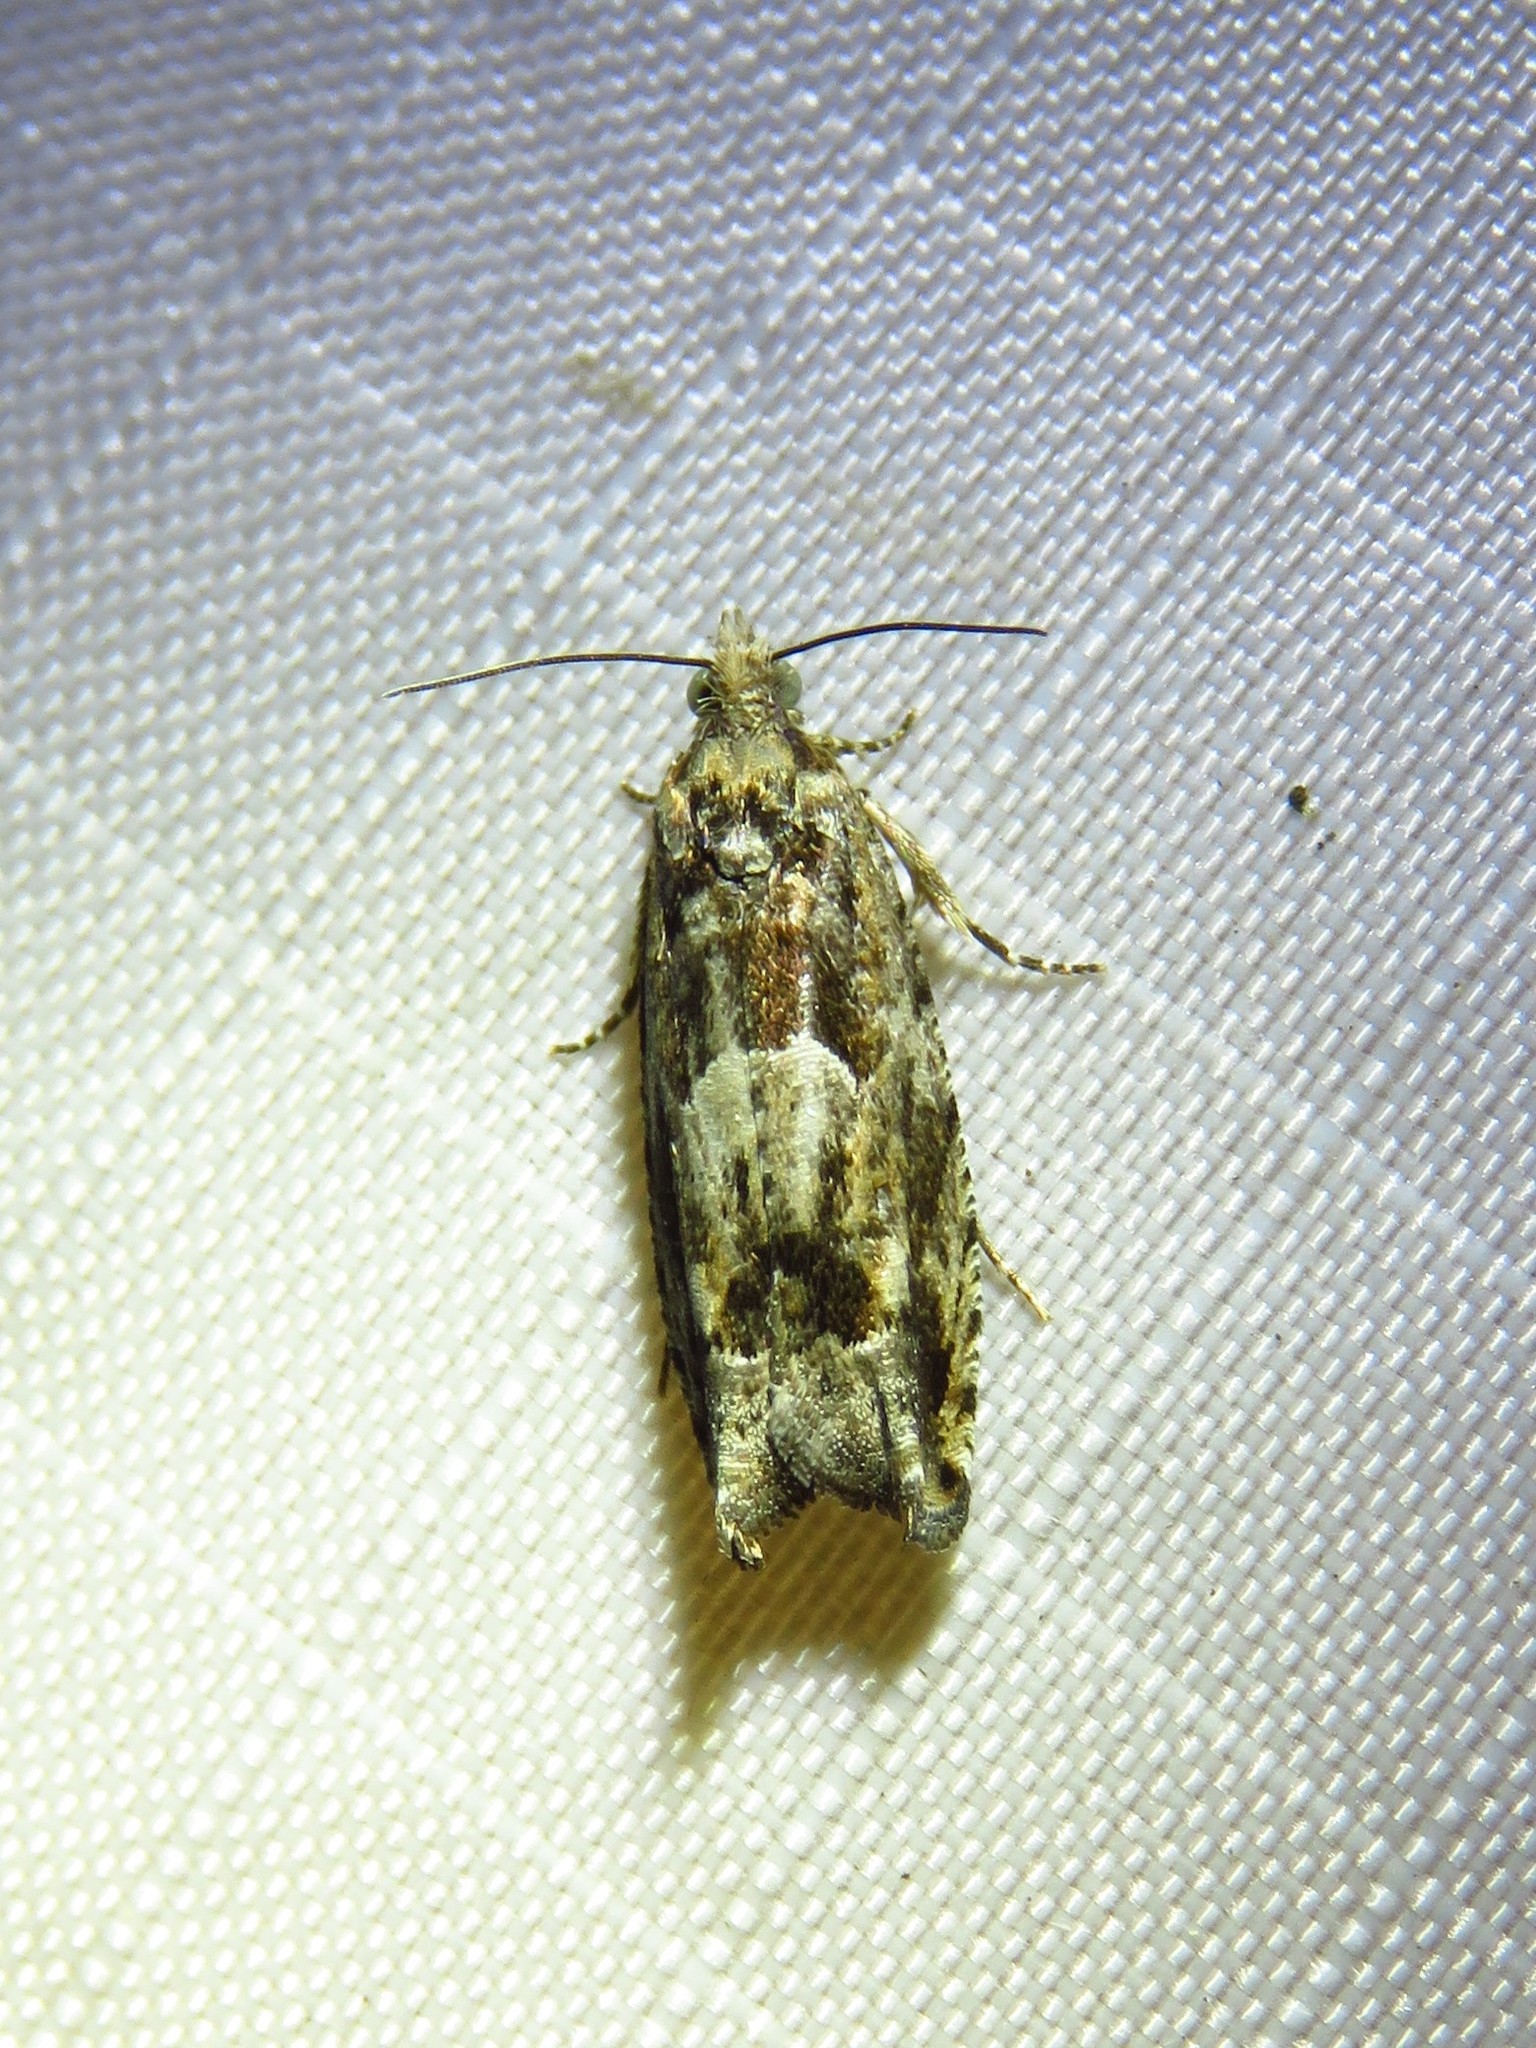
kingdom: Animalia
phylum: Arthropoda
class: Insecta
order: Lepidoptera
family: Tortricidae
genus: Pseudexentera
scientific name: Pseudexentera hodsoni
